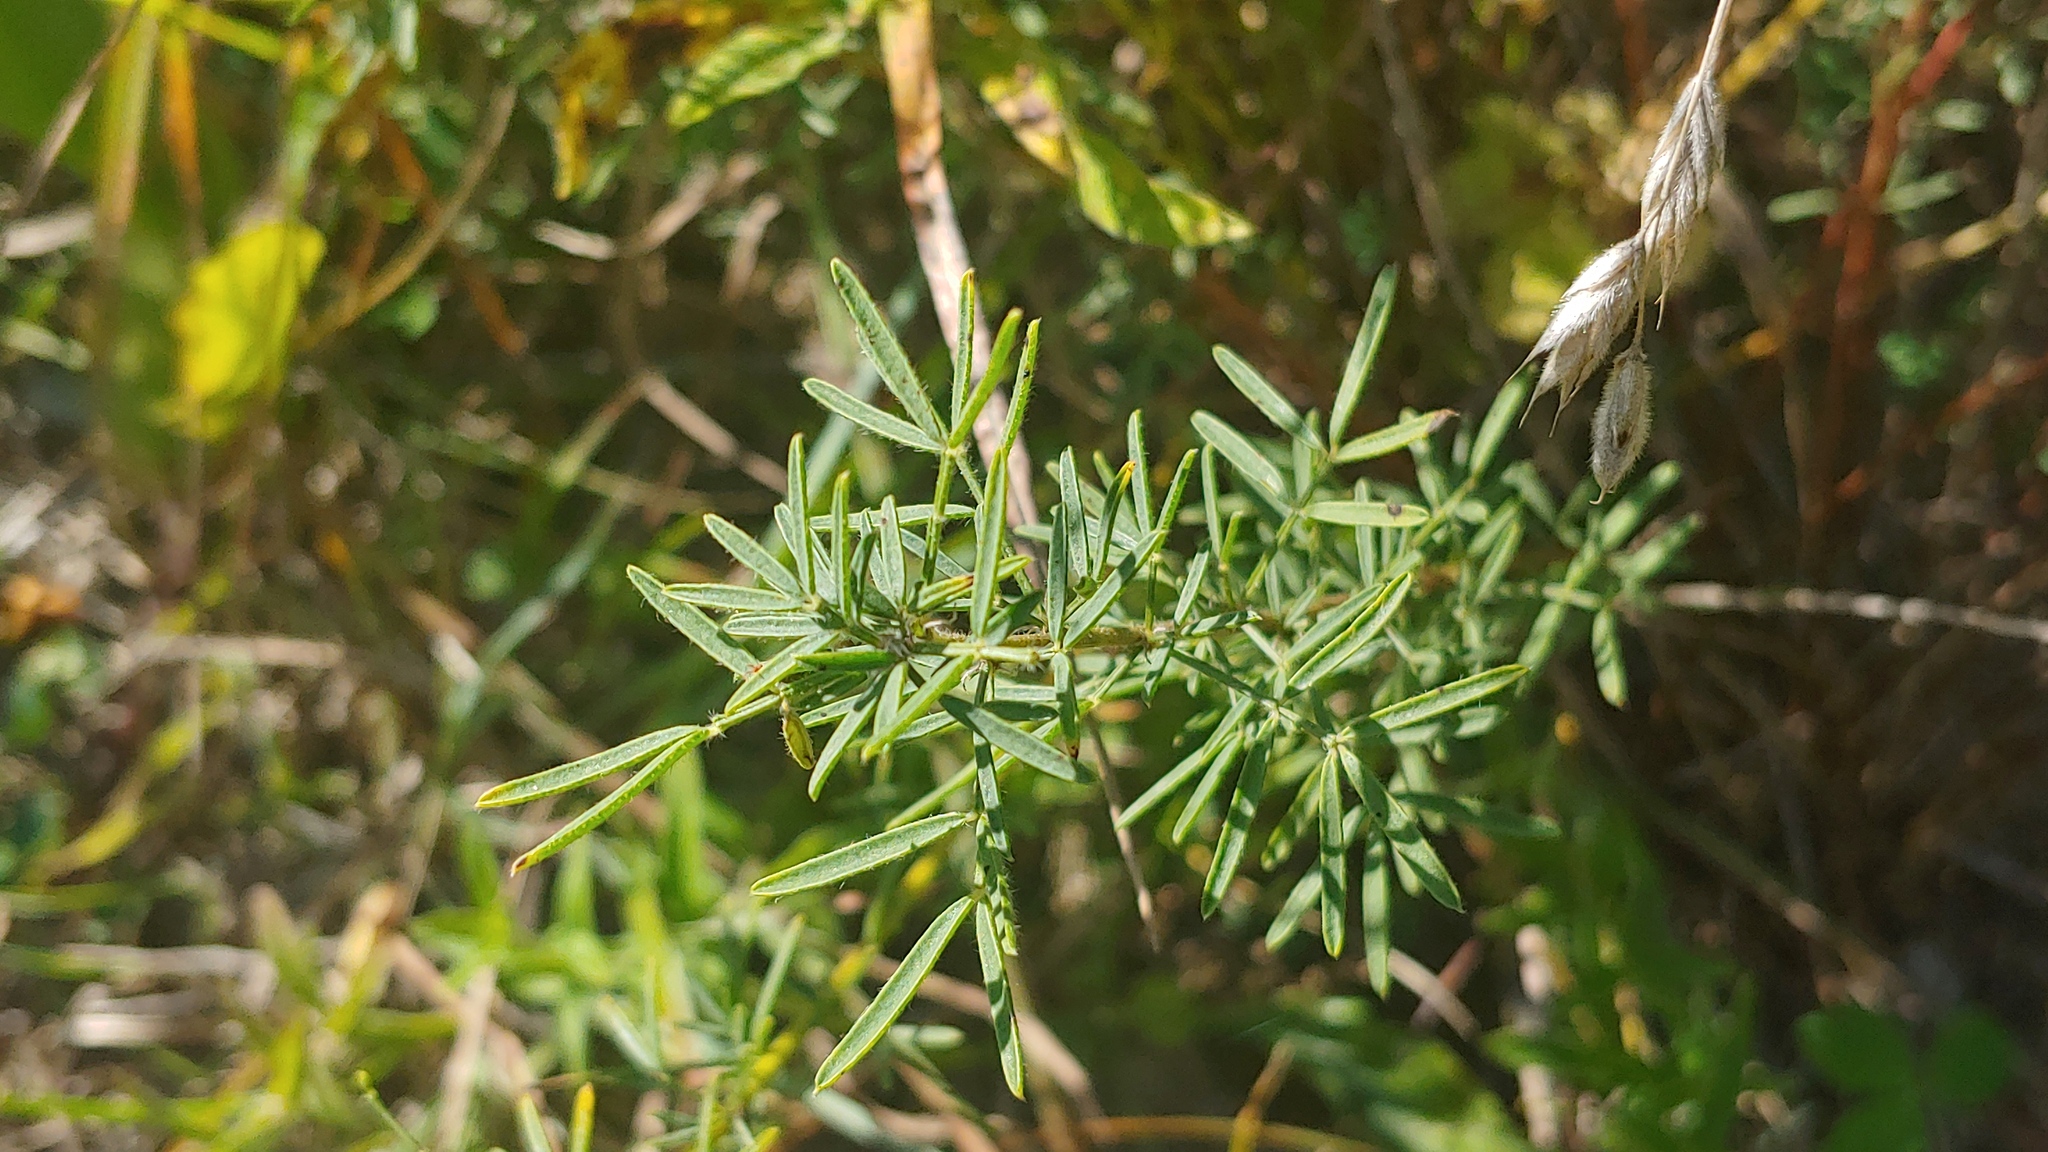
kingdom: Plantae
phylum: Tracheophyta
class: Magnoliopsida
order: Fabales
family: Fabaceae
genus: Dalea
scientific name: Dalea purpurea
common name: Purple prairie-clover
